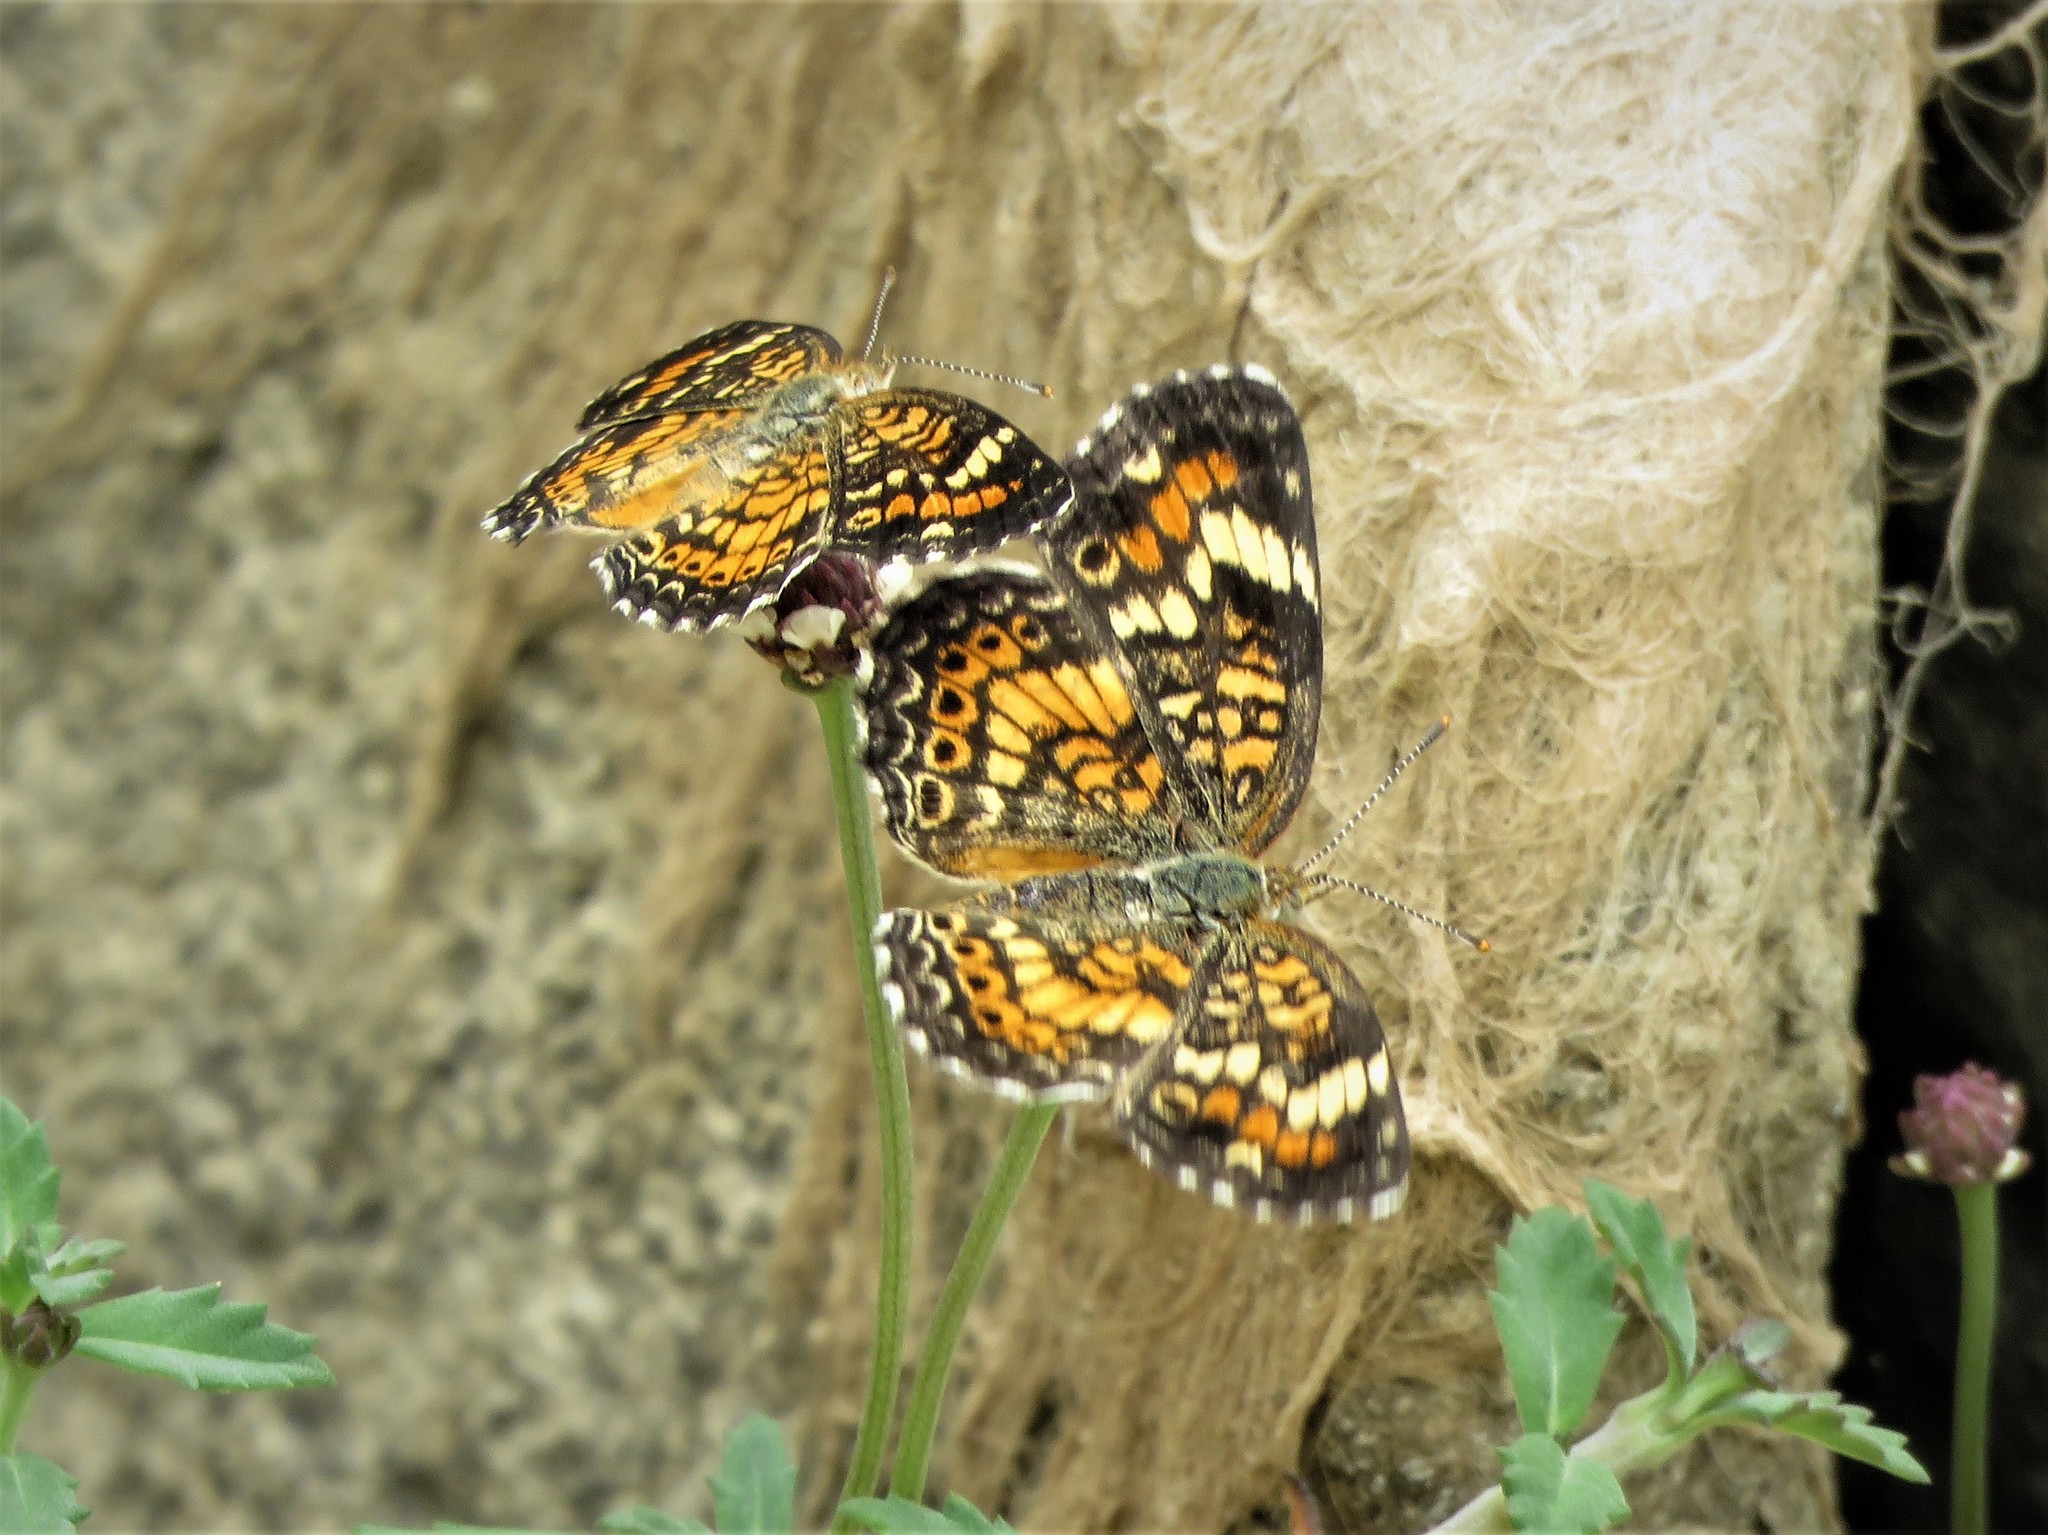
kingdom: Animalia
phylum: Arthropoda
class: Insecta
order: Lepidoptera
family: Nymphalidae
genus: Phyciodes
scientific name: Phyciodes phaon
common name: Phaon crescent
